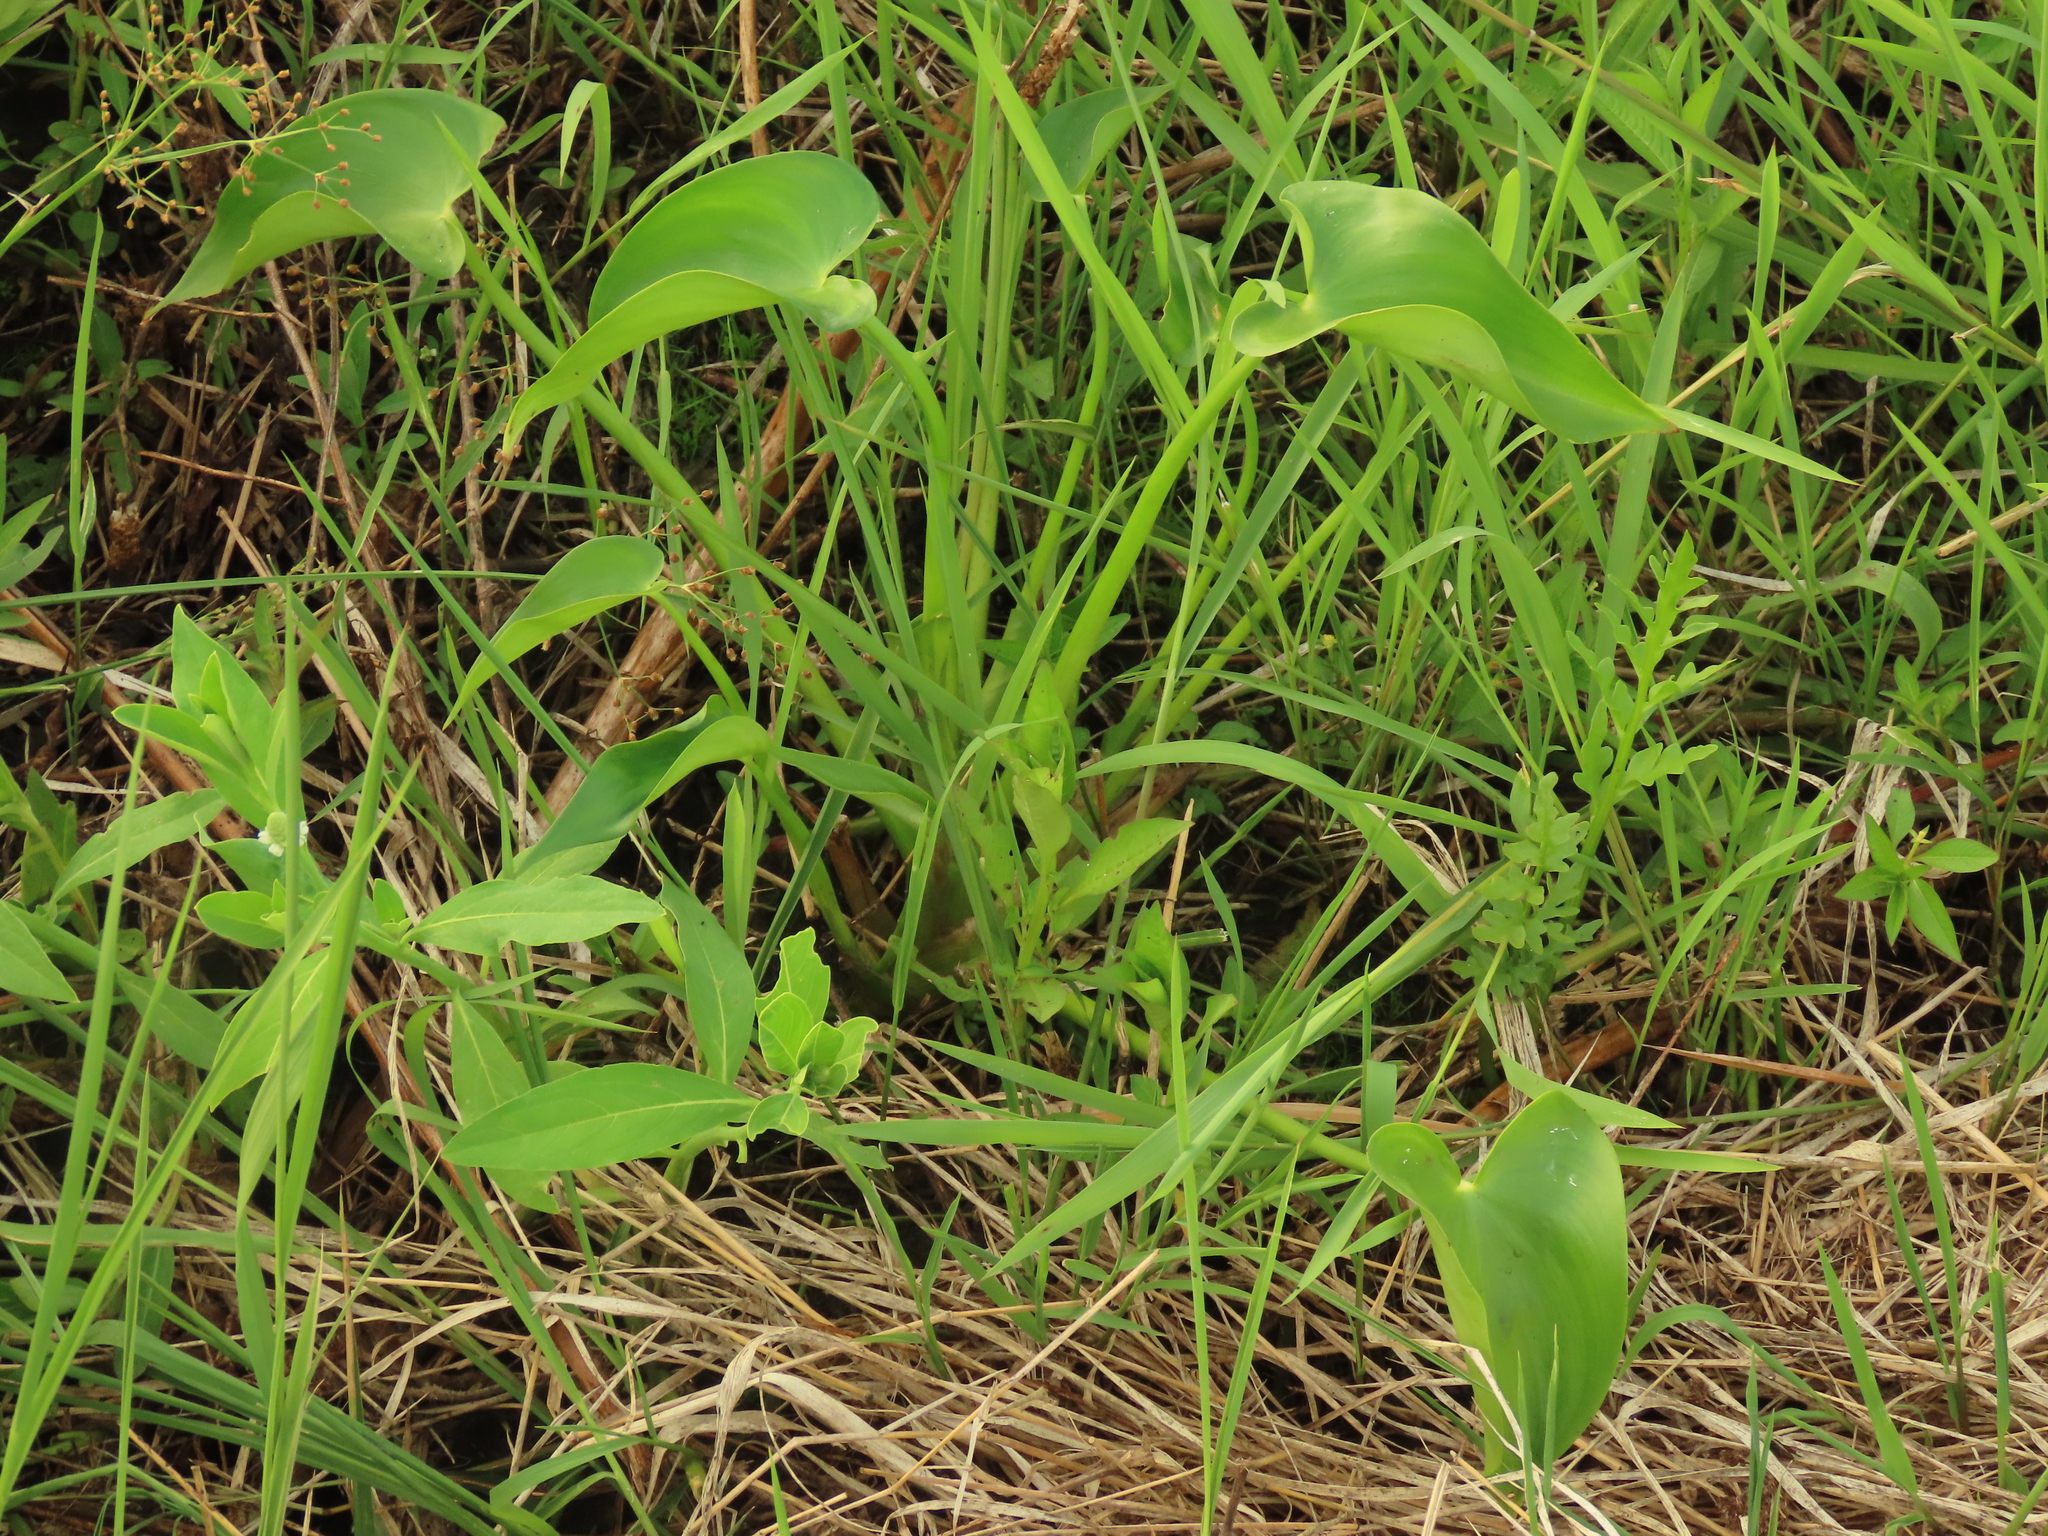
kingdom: Plantae
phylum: Tracheophyta
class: Liliopsida
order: Commelinales
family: Pontederiaceae
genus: Pontederia
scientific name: Pontederia vaginalis
